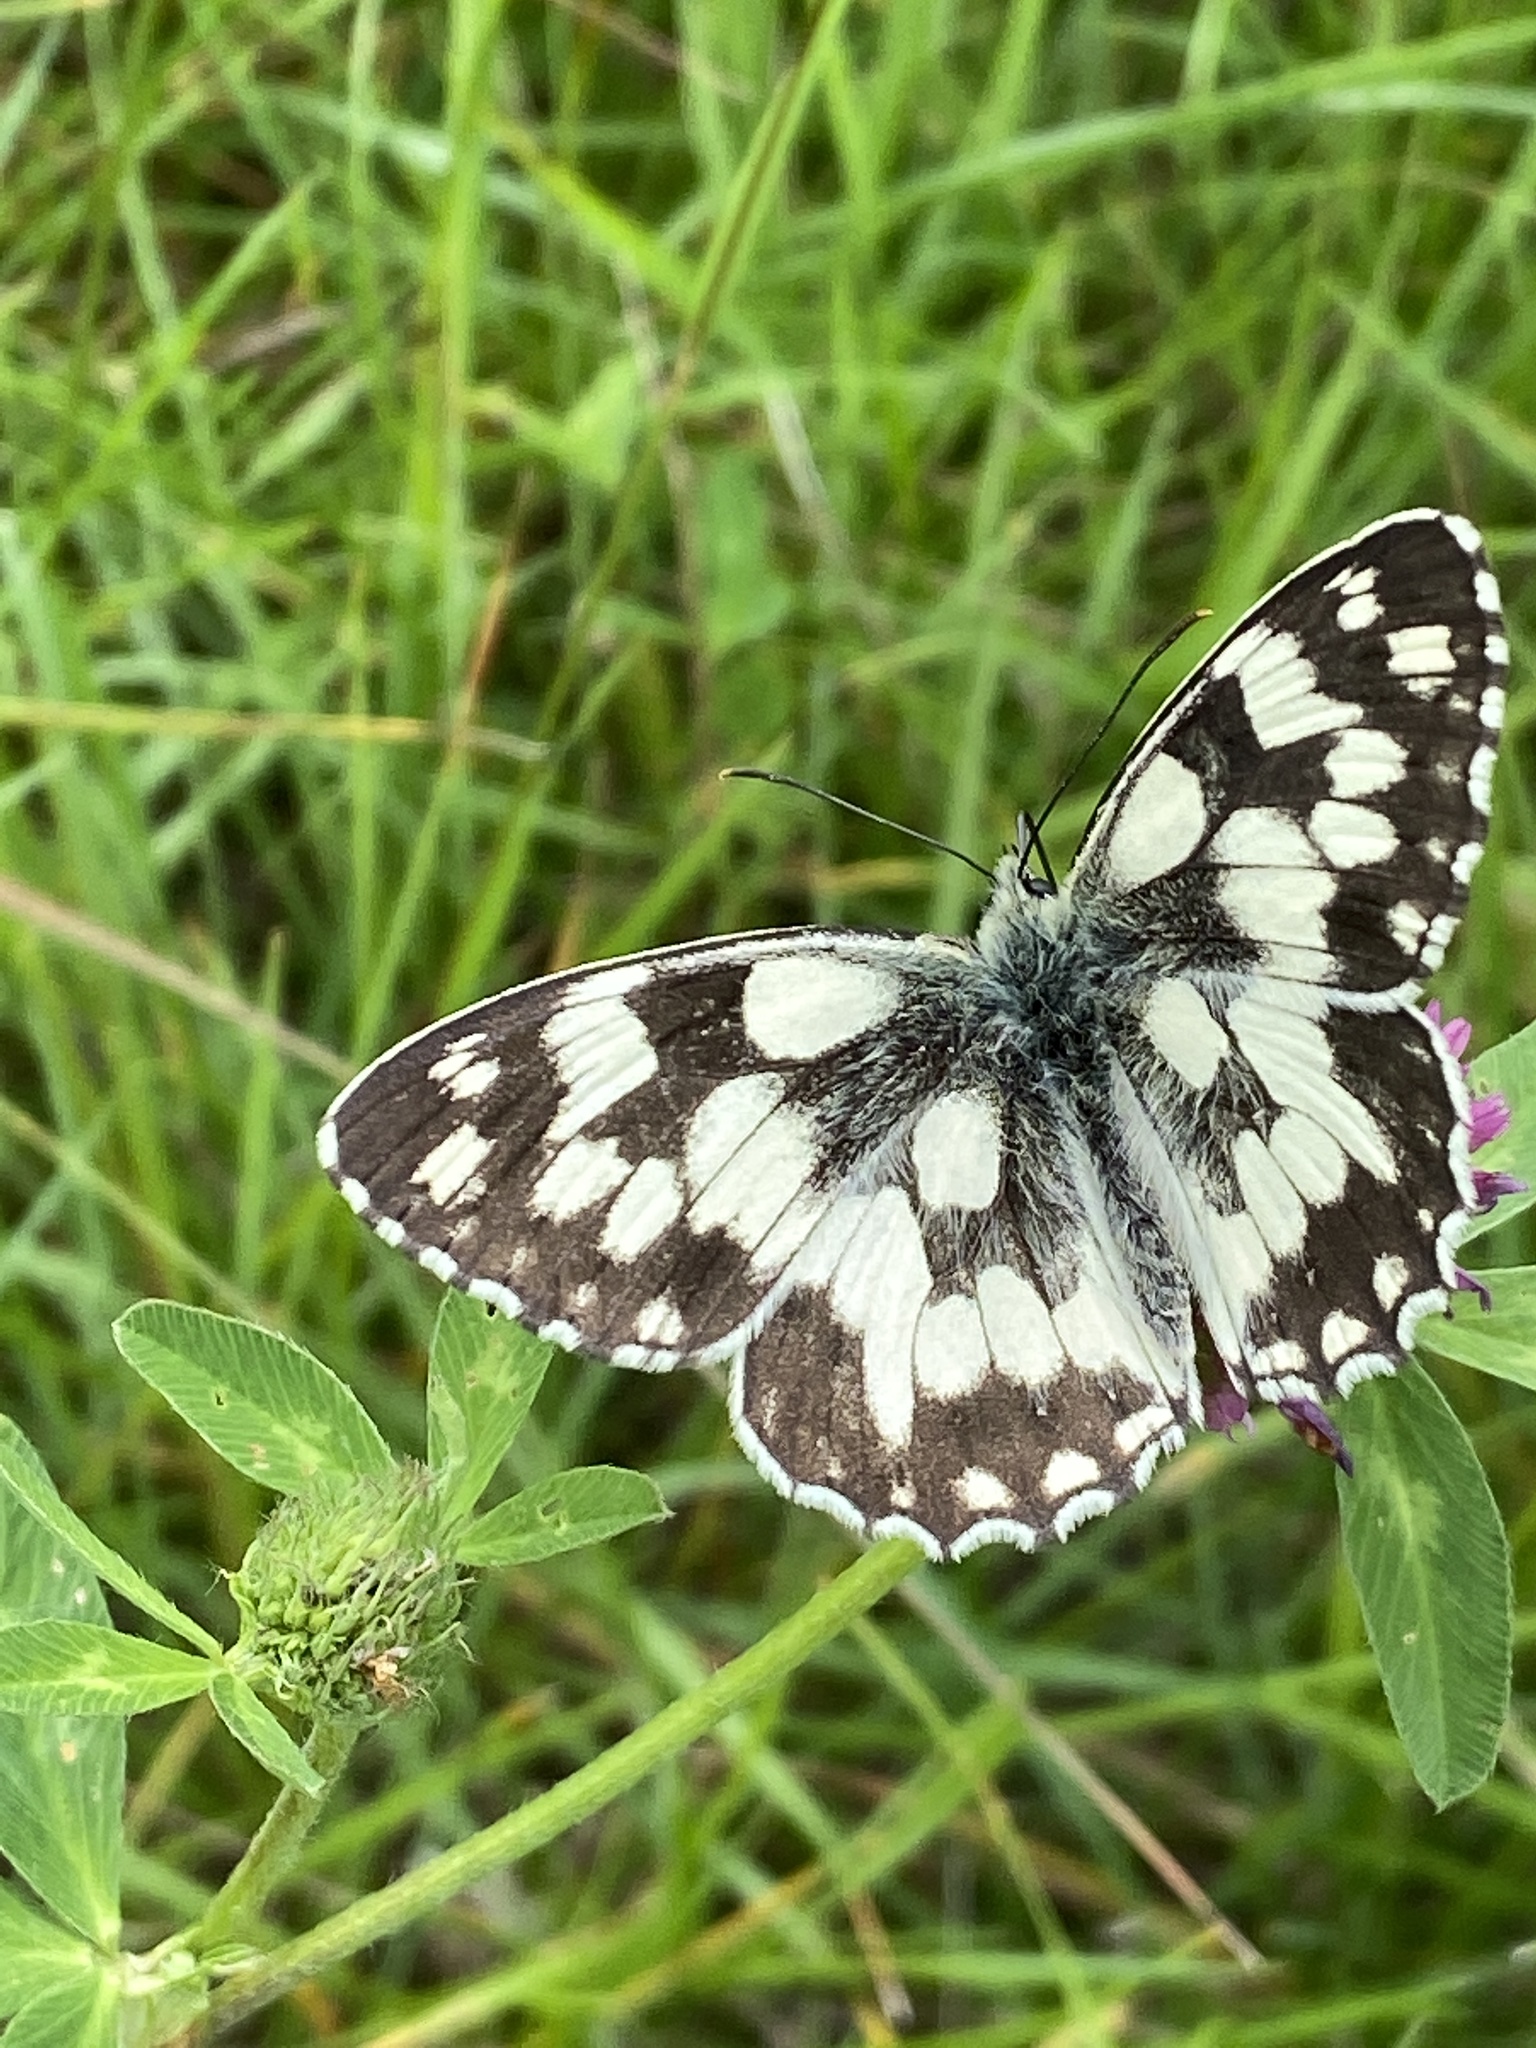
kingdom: Animalia
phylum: Arthropoda
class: Insecta
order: Lepidoptera
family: Nymphalidae
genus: Melanargia
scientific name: Melanargia galathea
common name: Marbled white
